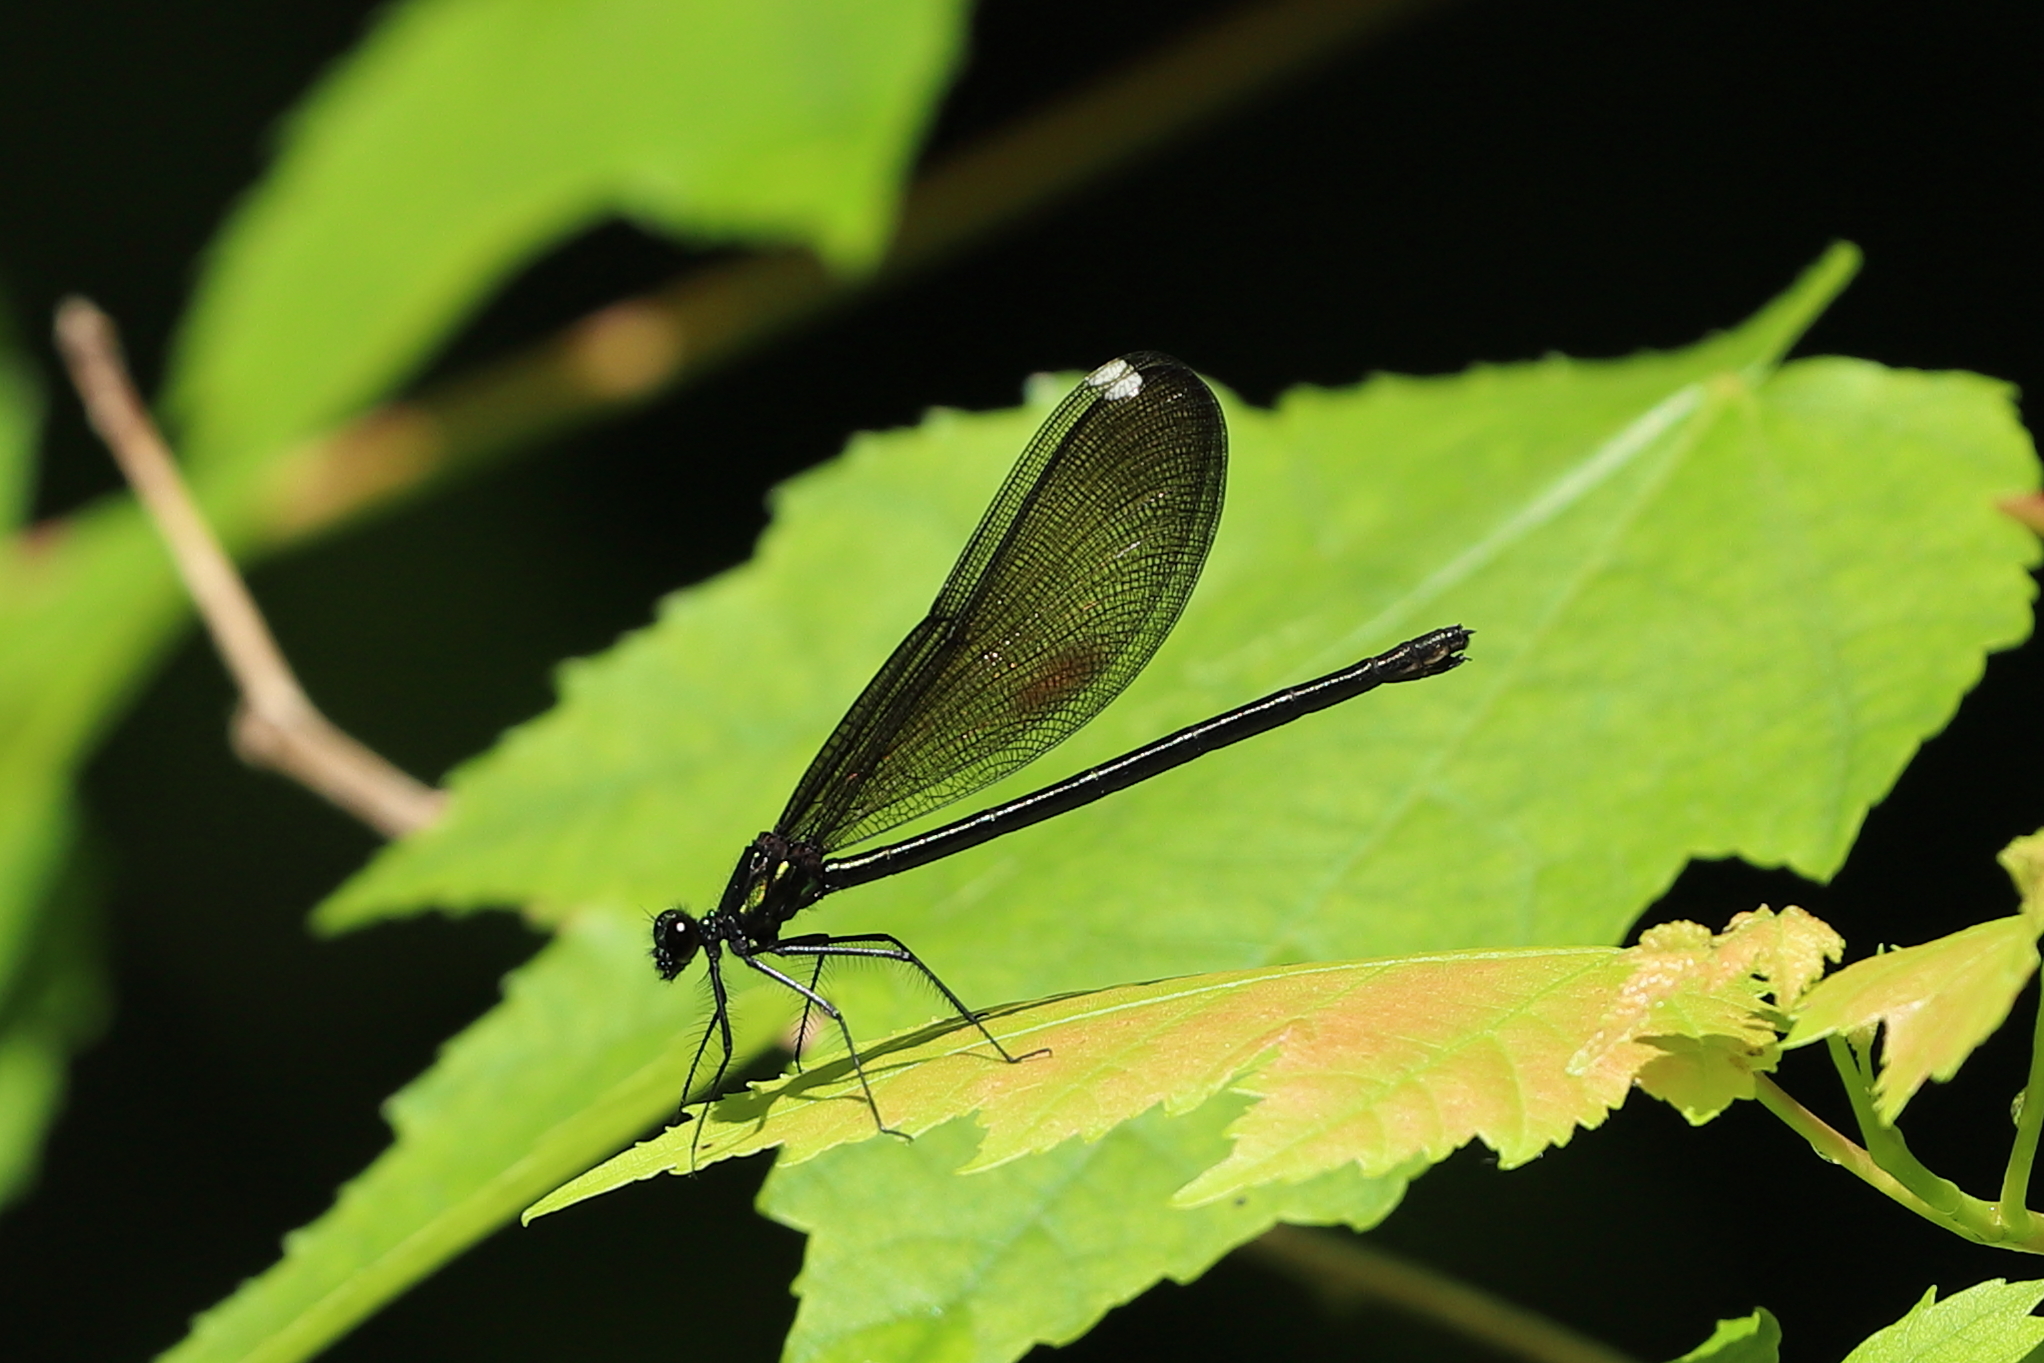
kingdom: Animalia
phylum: Arthropoda
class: Insecta
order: Odonata
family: Calopterygidae
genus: Calopteryx
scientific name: Calopteryx maculata
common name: Ebony jewelwing
